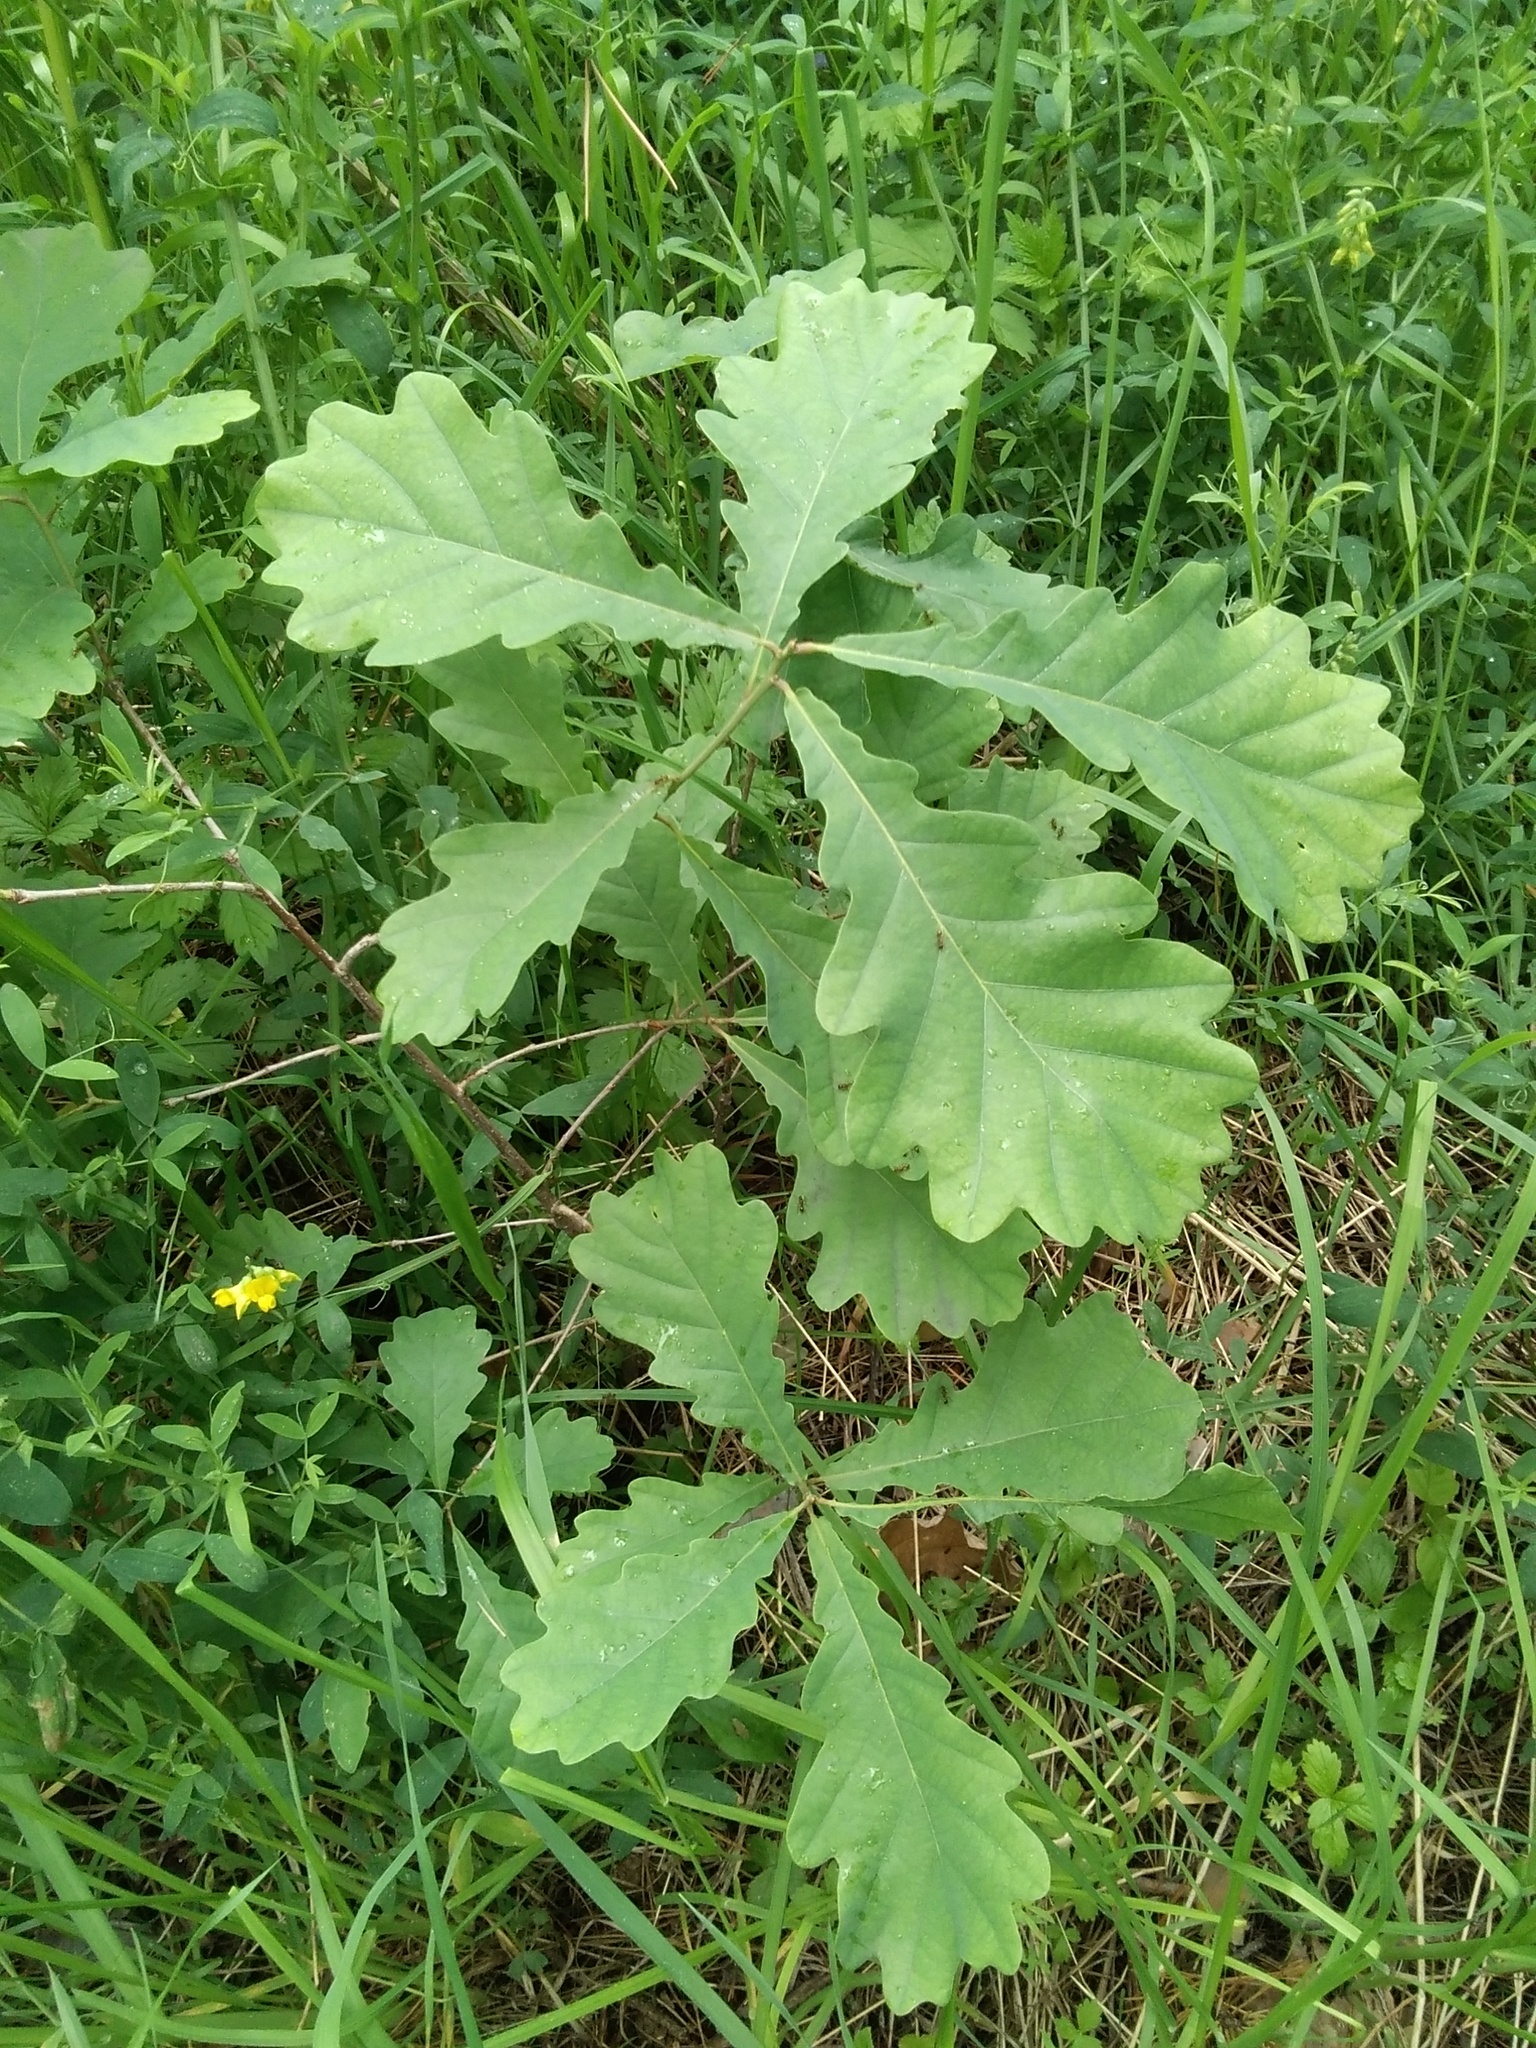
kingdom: Plantae
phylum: Tracheophyta
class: Magnoliopsida
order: Fagales
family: Fagaceae
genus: Quercus
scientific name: Quercus robur
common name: Pedunculate oak
